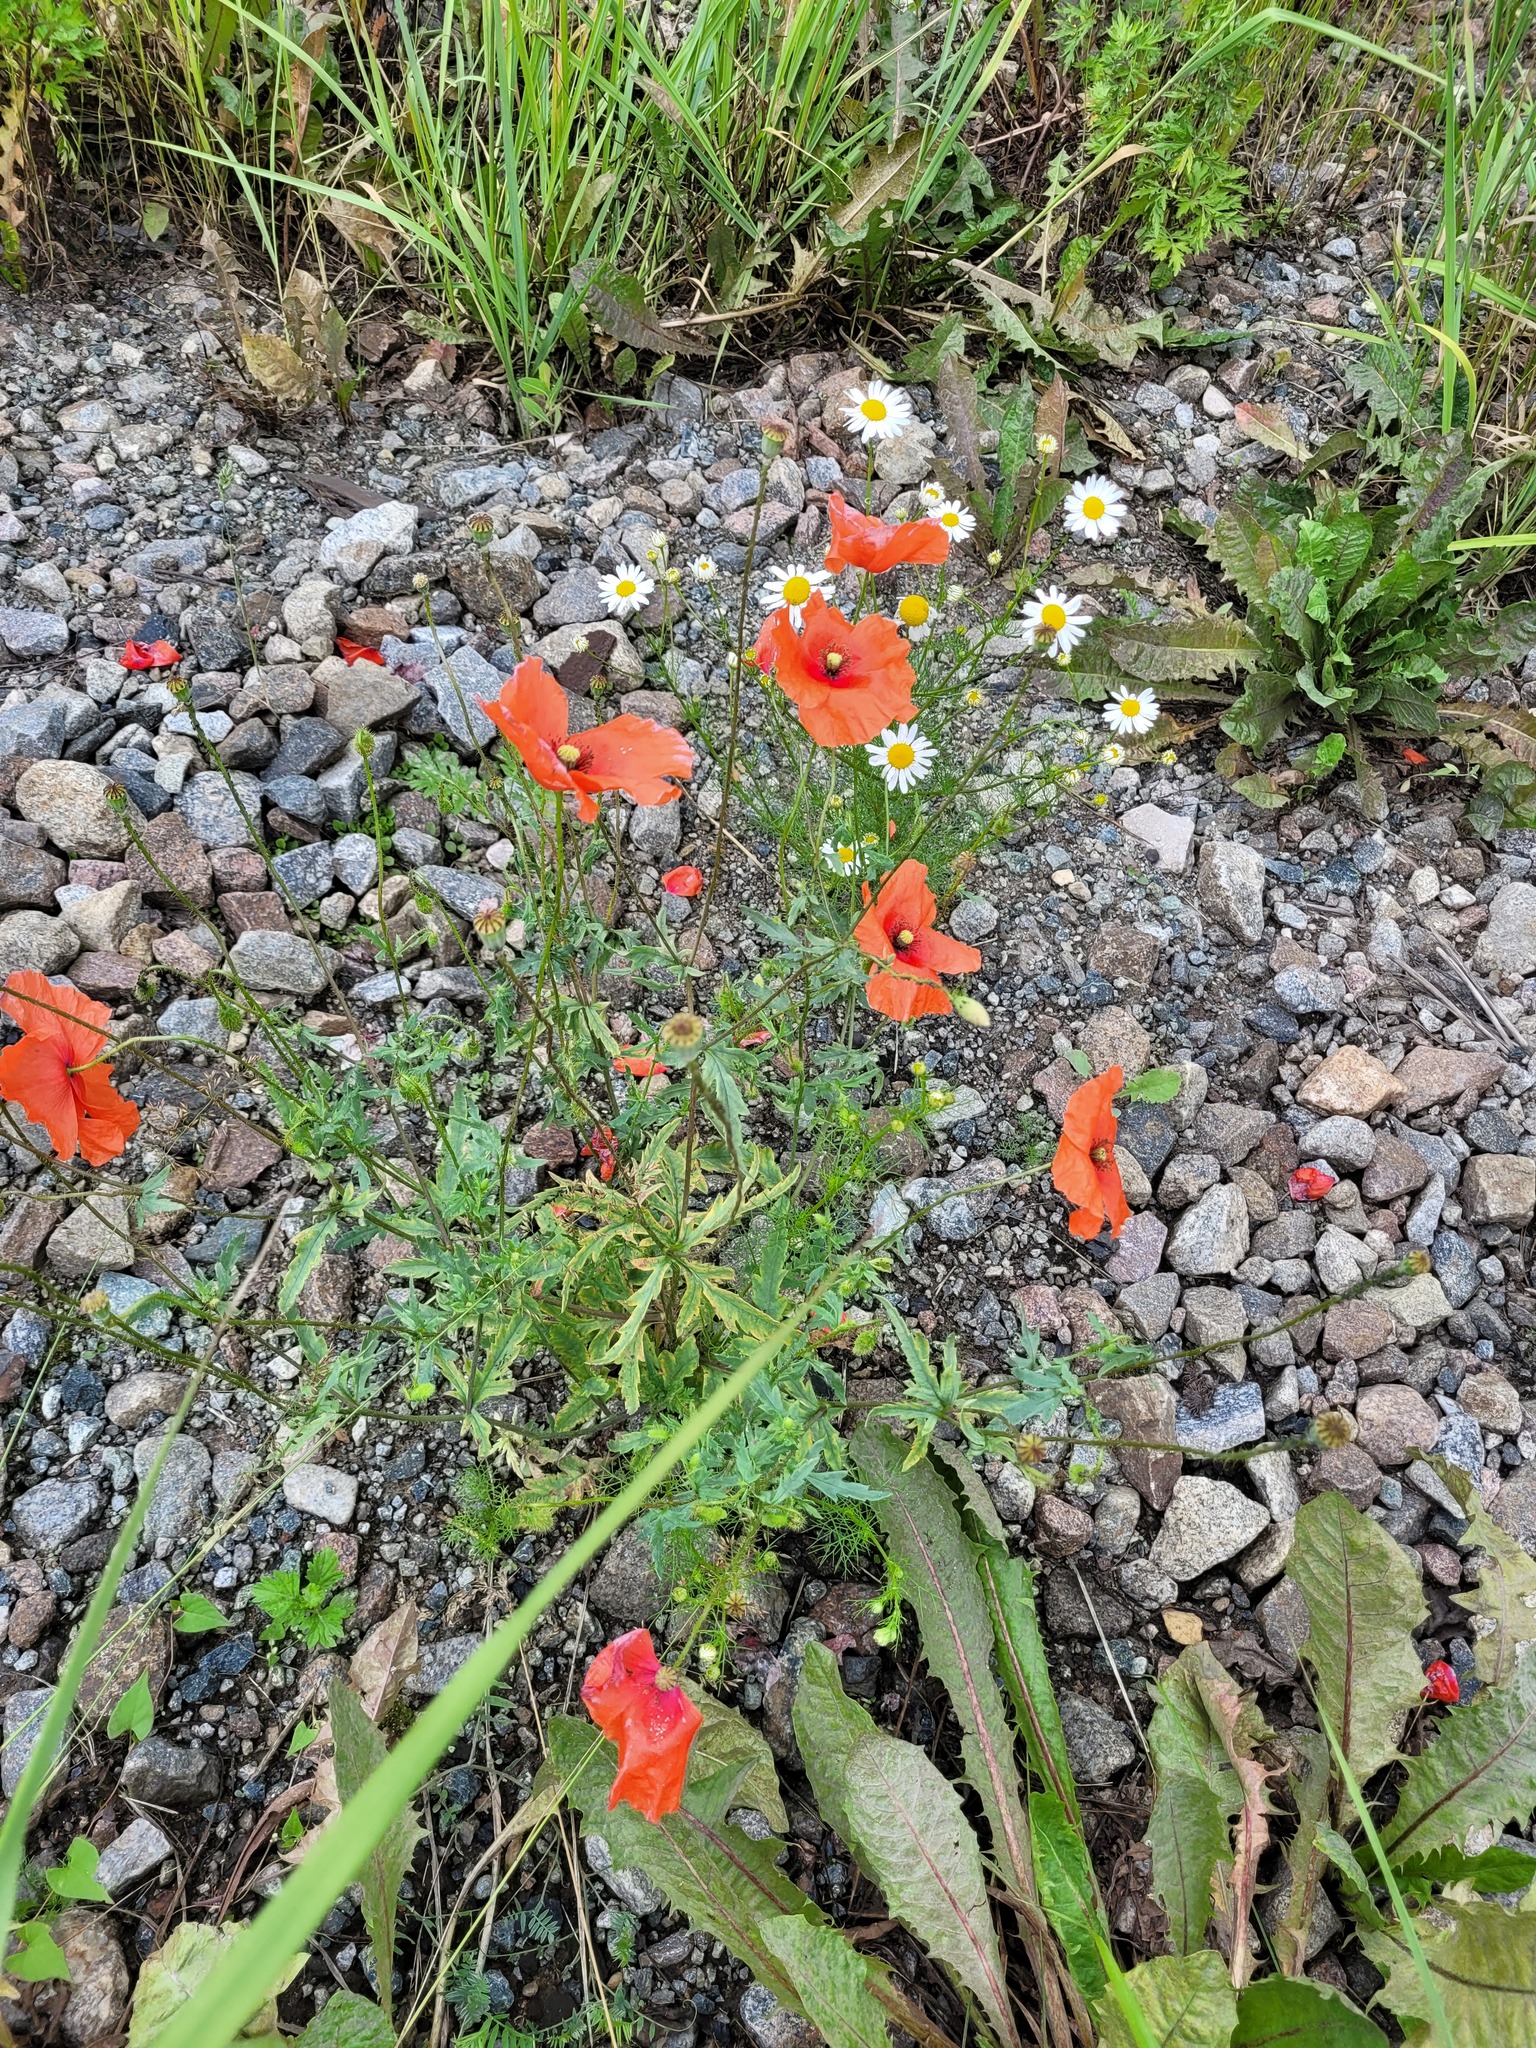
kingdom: Plantae
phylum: Tracheophyta
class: Magnoliopsida
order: Ranunculales
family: Papaveraceae
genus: Papaver
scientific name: Papaver rhoeas
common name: Corn poppy
